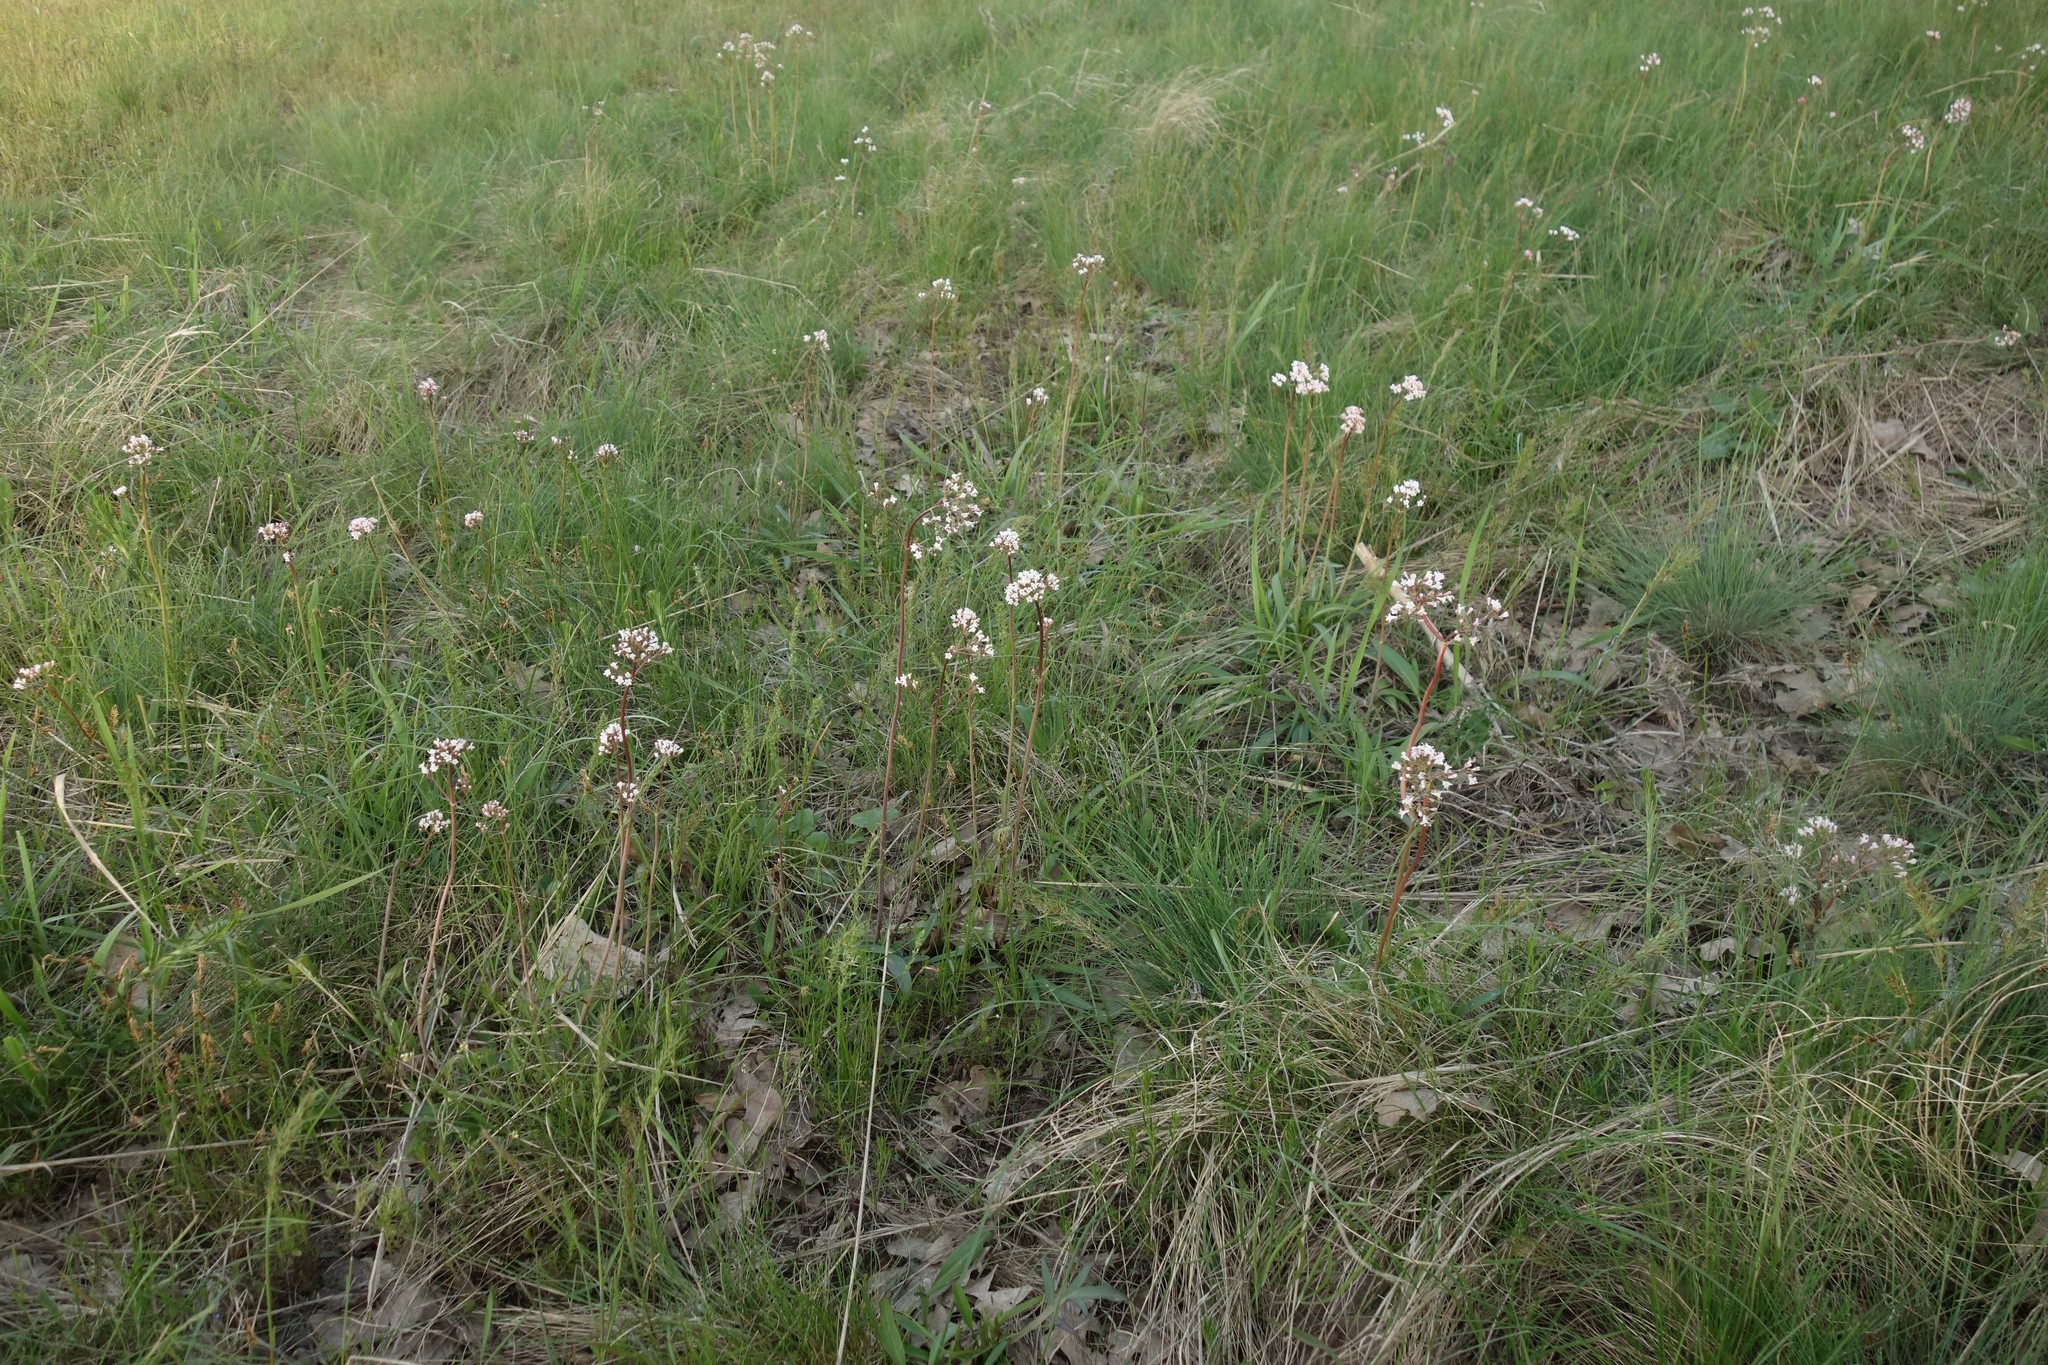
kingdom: Plantae
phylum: Tracheophyta
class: Magnoliopsida
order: Dipsacales
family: Caprifoliaceae
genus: Valeriana
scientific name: Valeriana tuberosa
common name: Tuberous valerian
